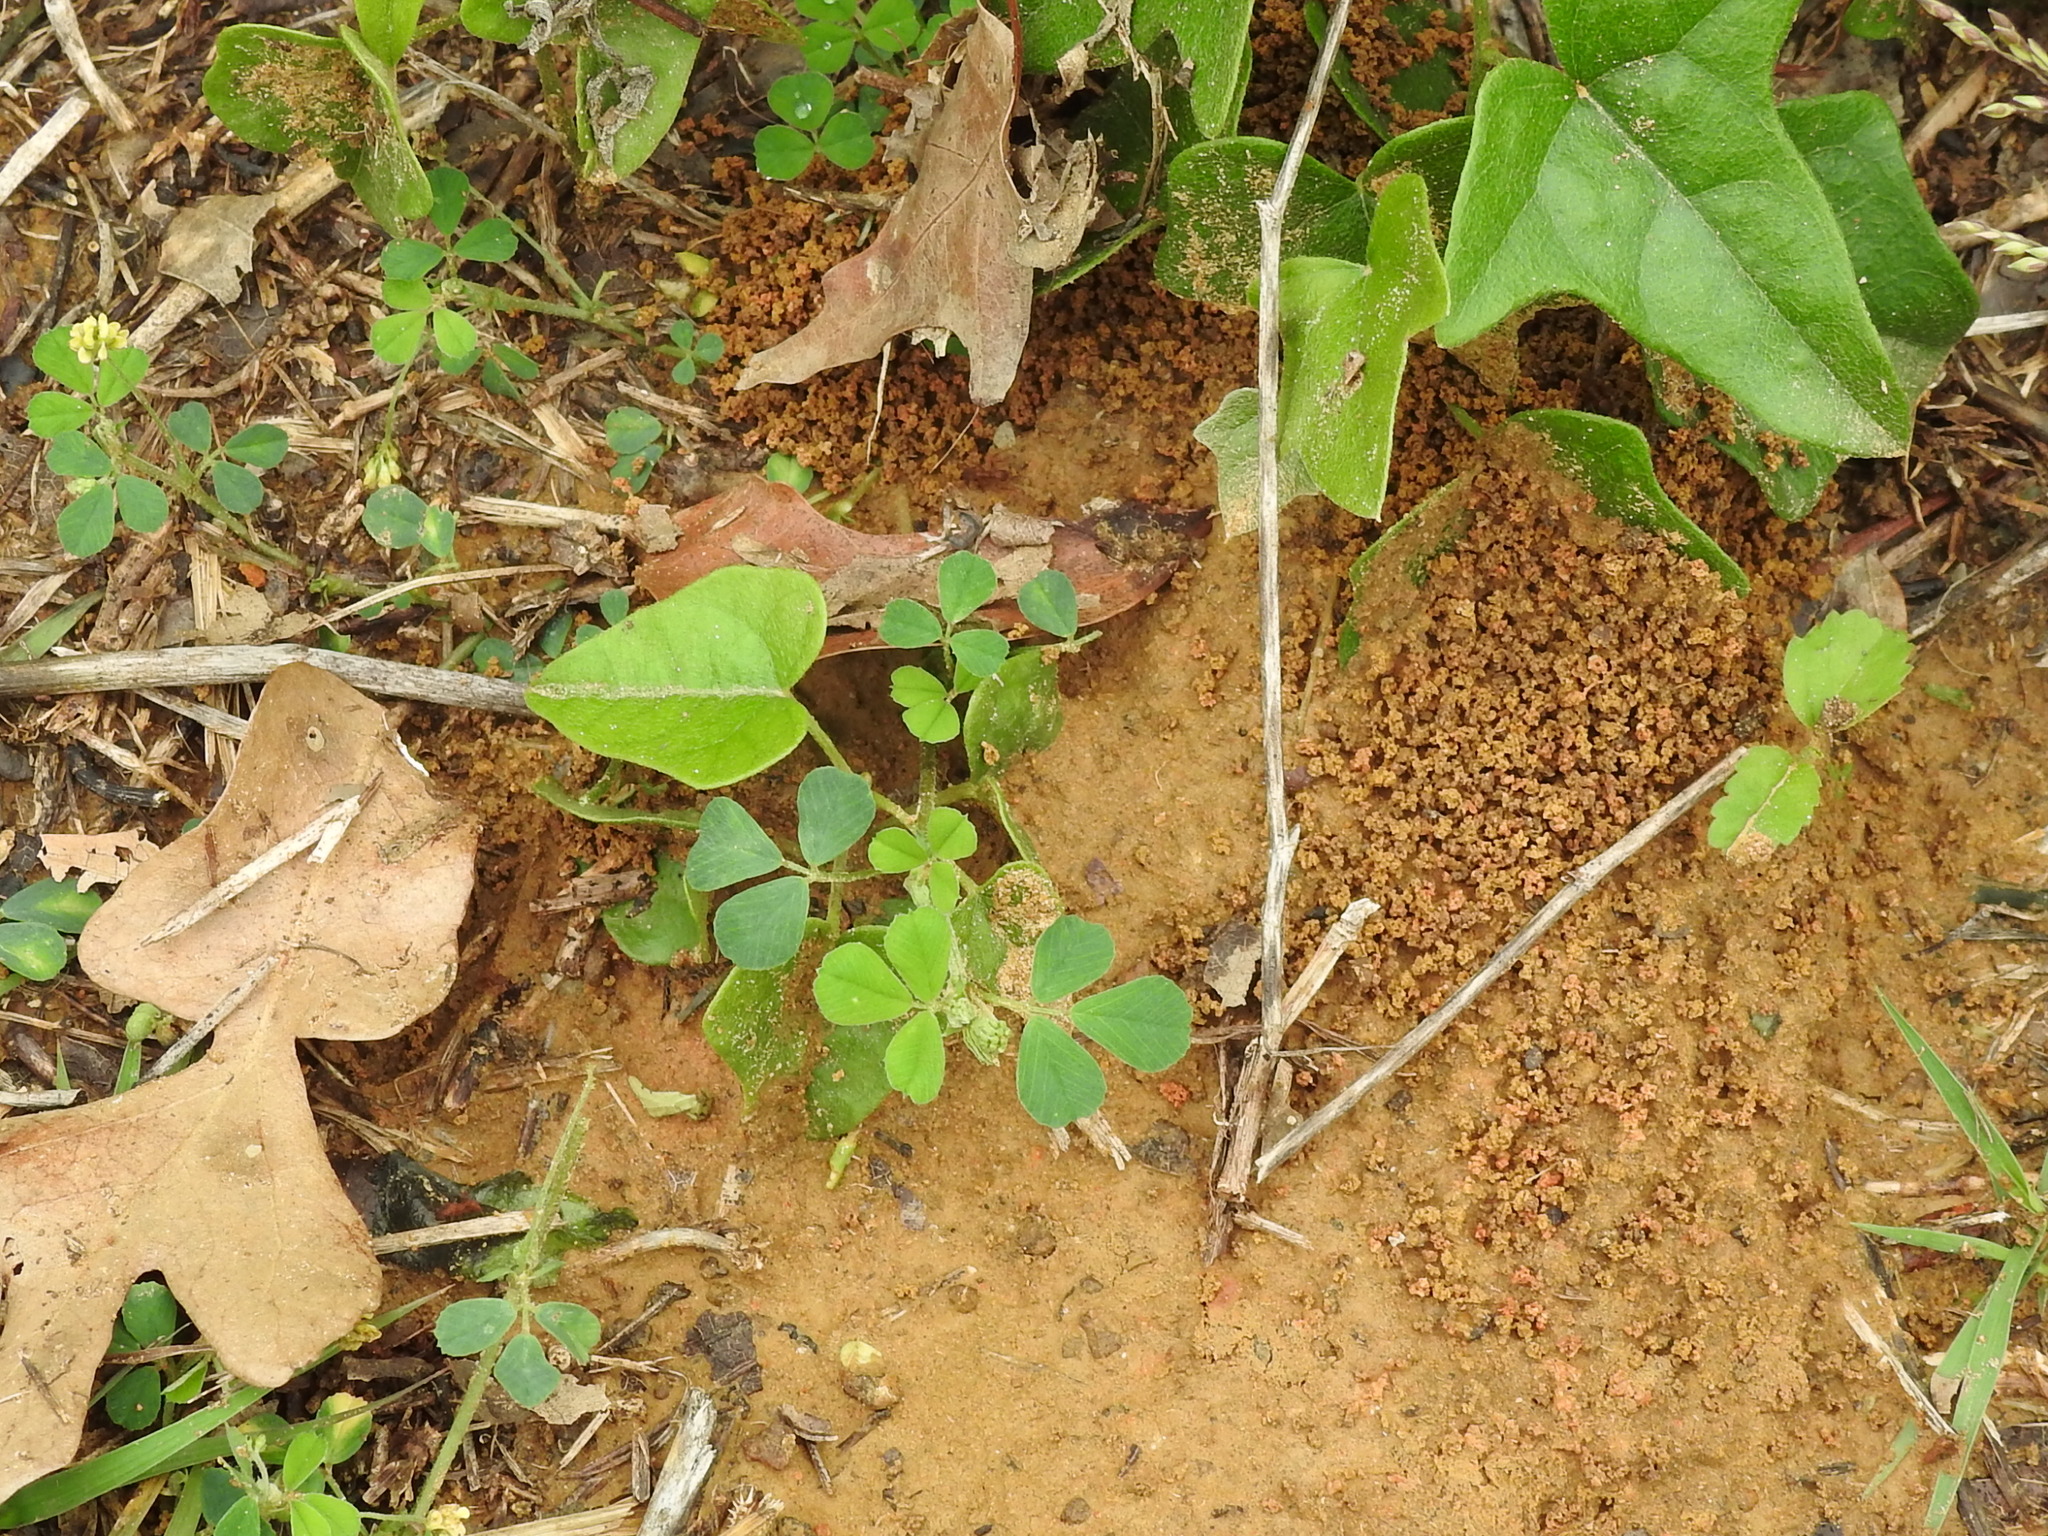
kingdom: Animalia
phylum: Arthropoda
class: Insecta
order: Hymenoptera
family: Formicidae
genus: Trachymyrmex
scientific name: Trachymyrmex septentrionalis
